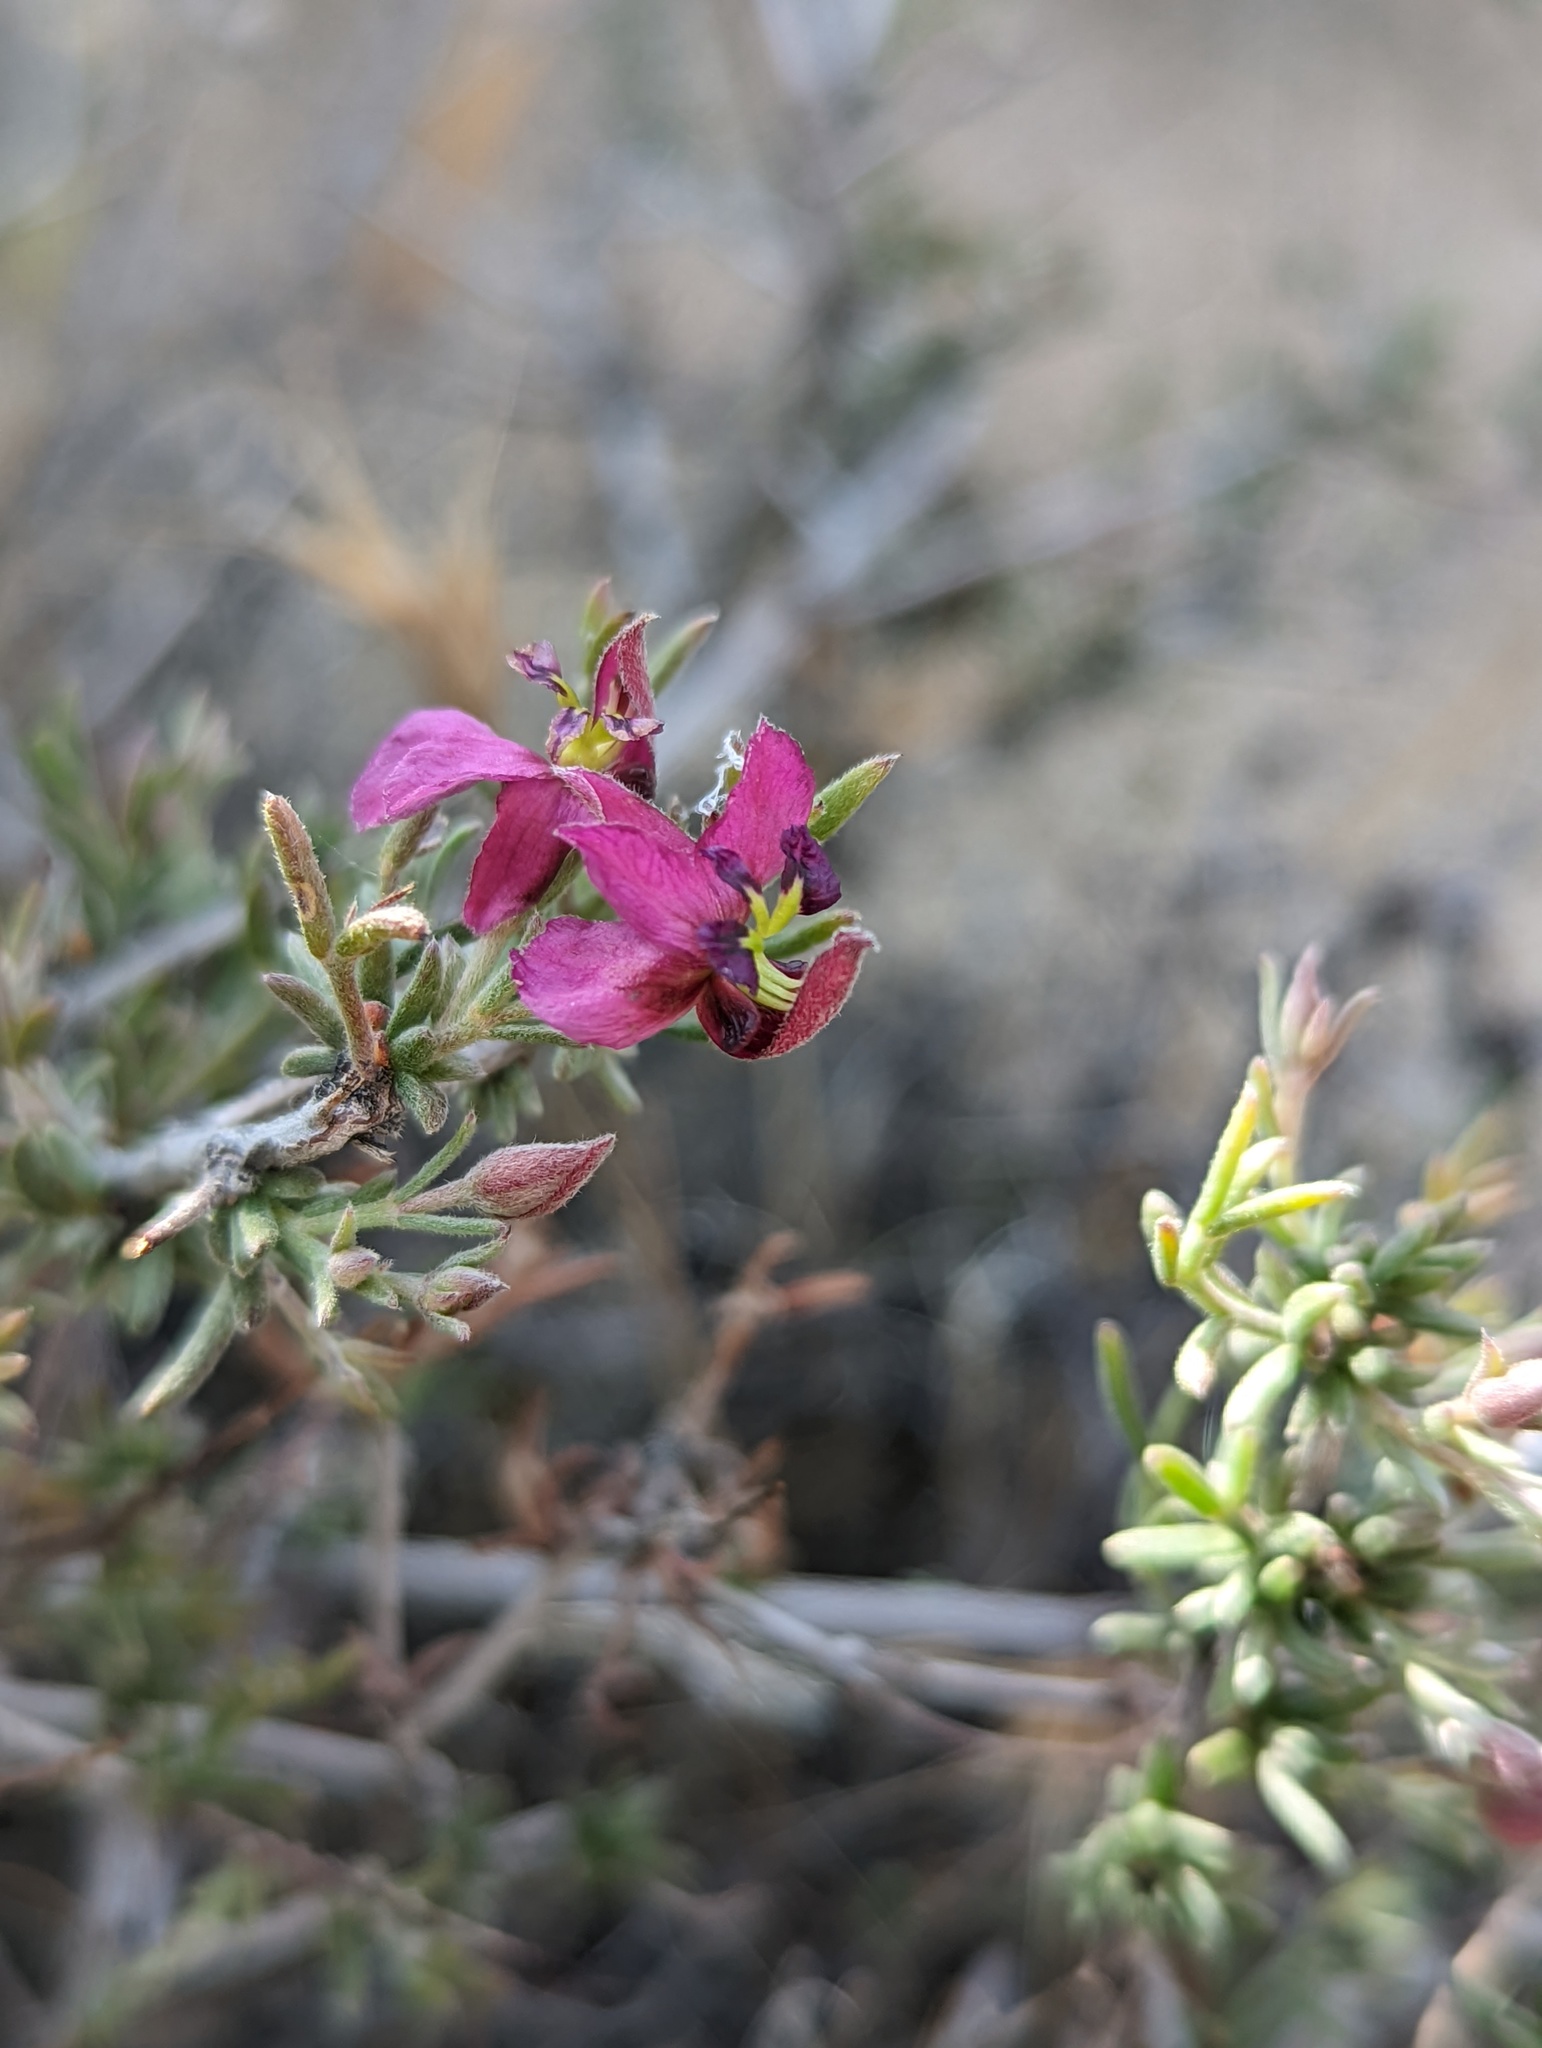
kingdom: Plantae
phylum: Tracheophyta
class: Magnoliopsida
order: Zygophyllales
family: Krameriaceae
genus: Krameria
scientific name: Krameria erecta
